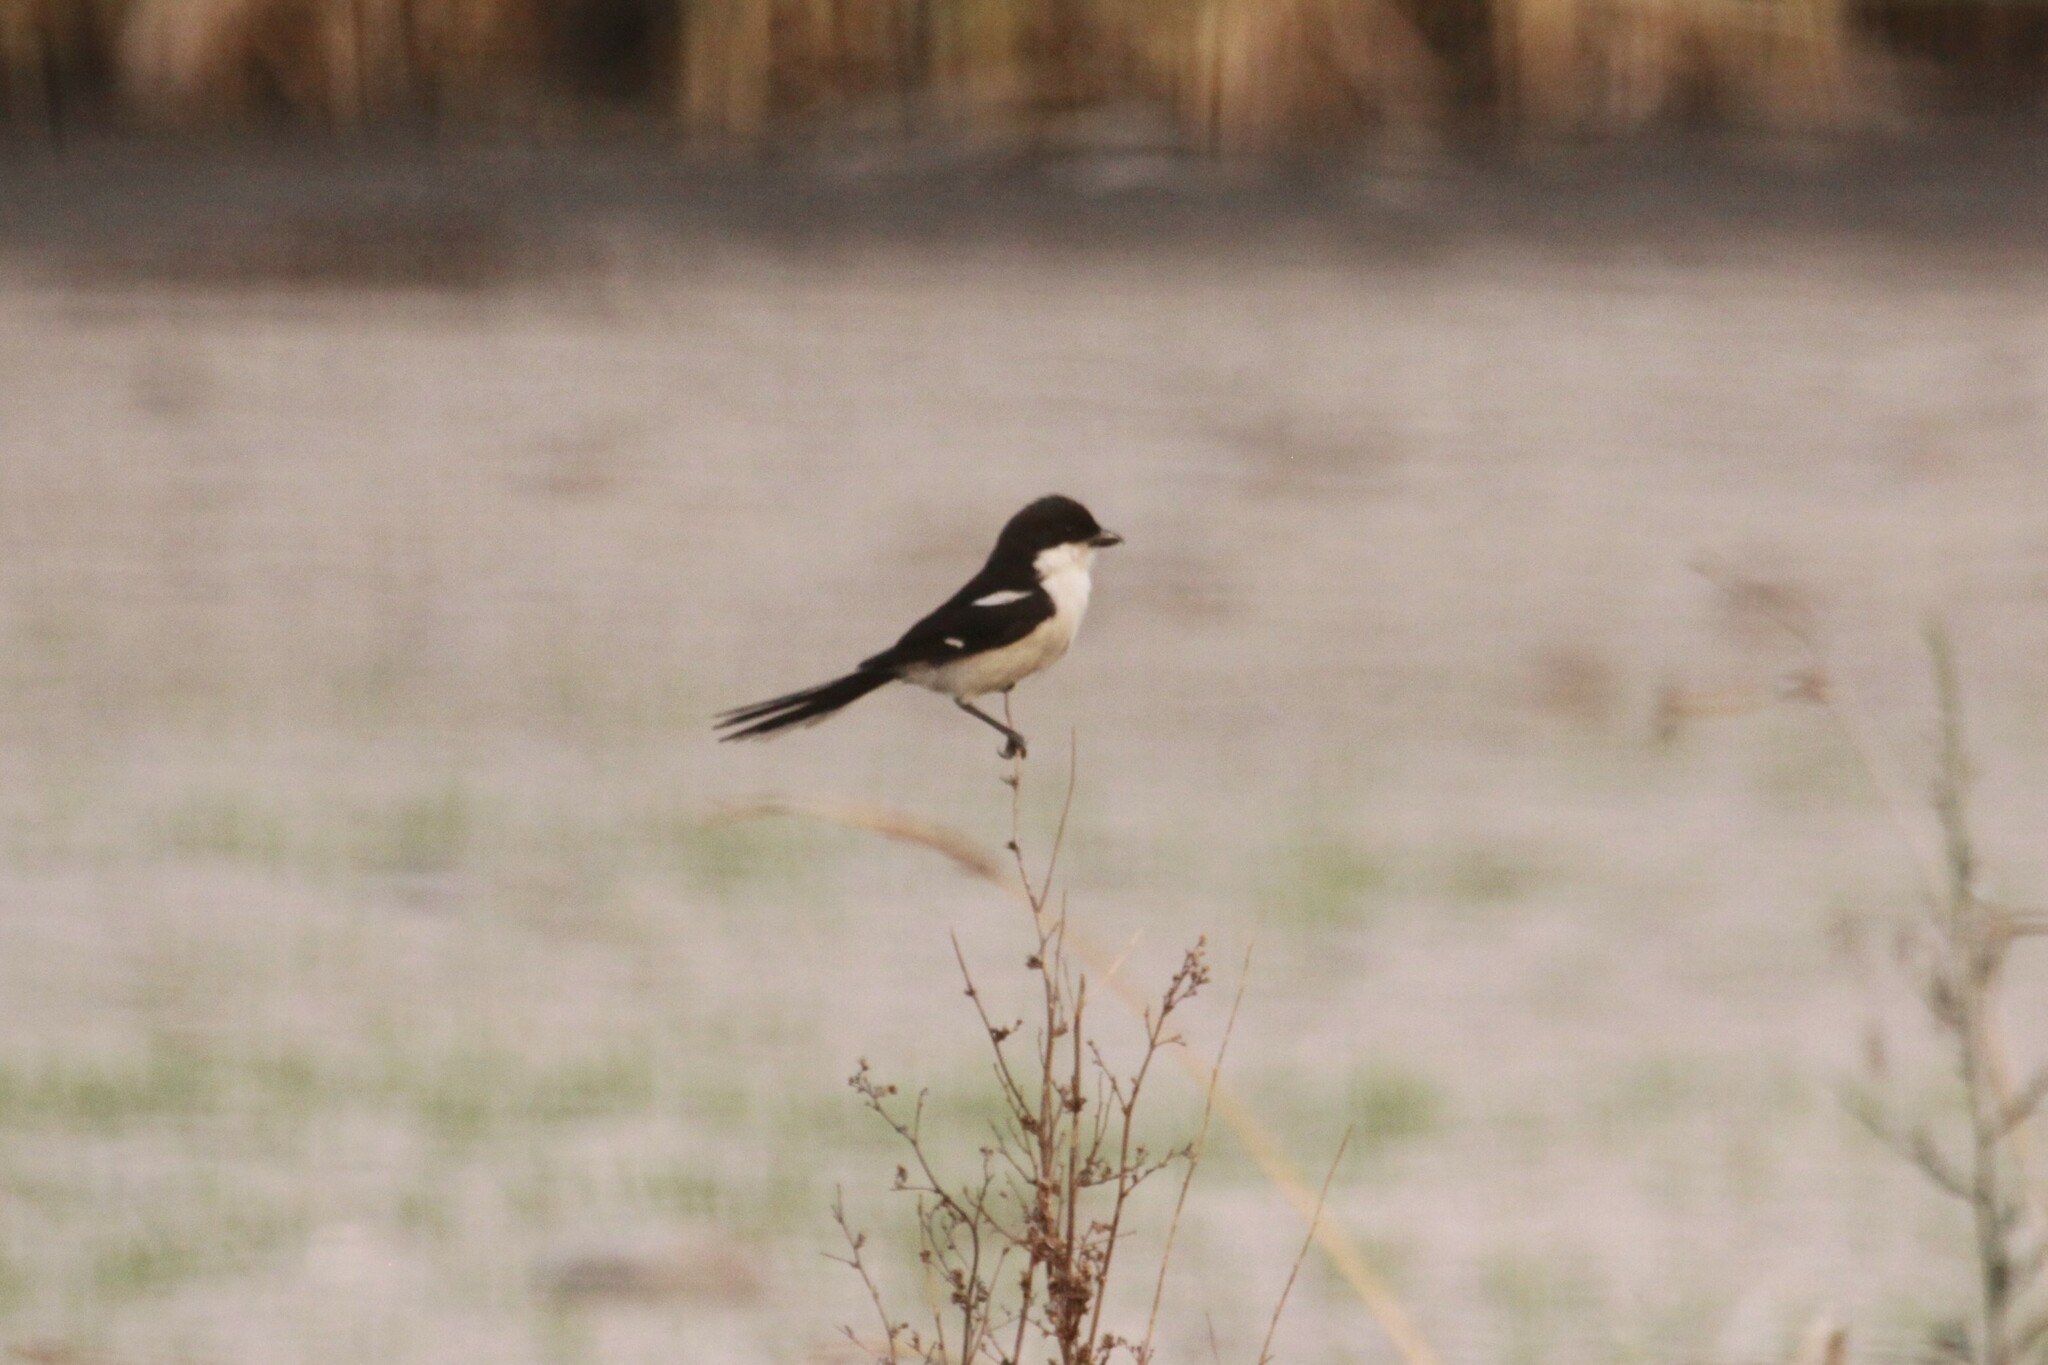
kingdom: Animalia
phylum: Chordata
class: Aves
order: Passeriformes
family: Laniidae
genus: Lanius
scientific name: Lanius collaris
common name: Southern fiscal
